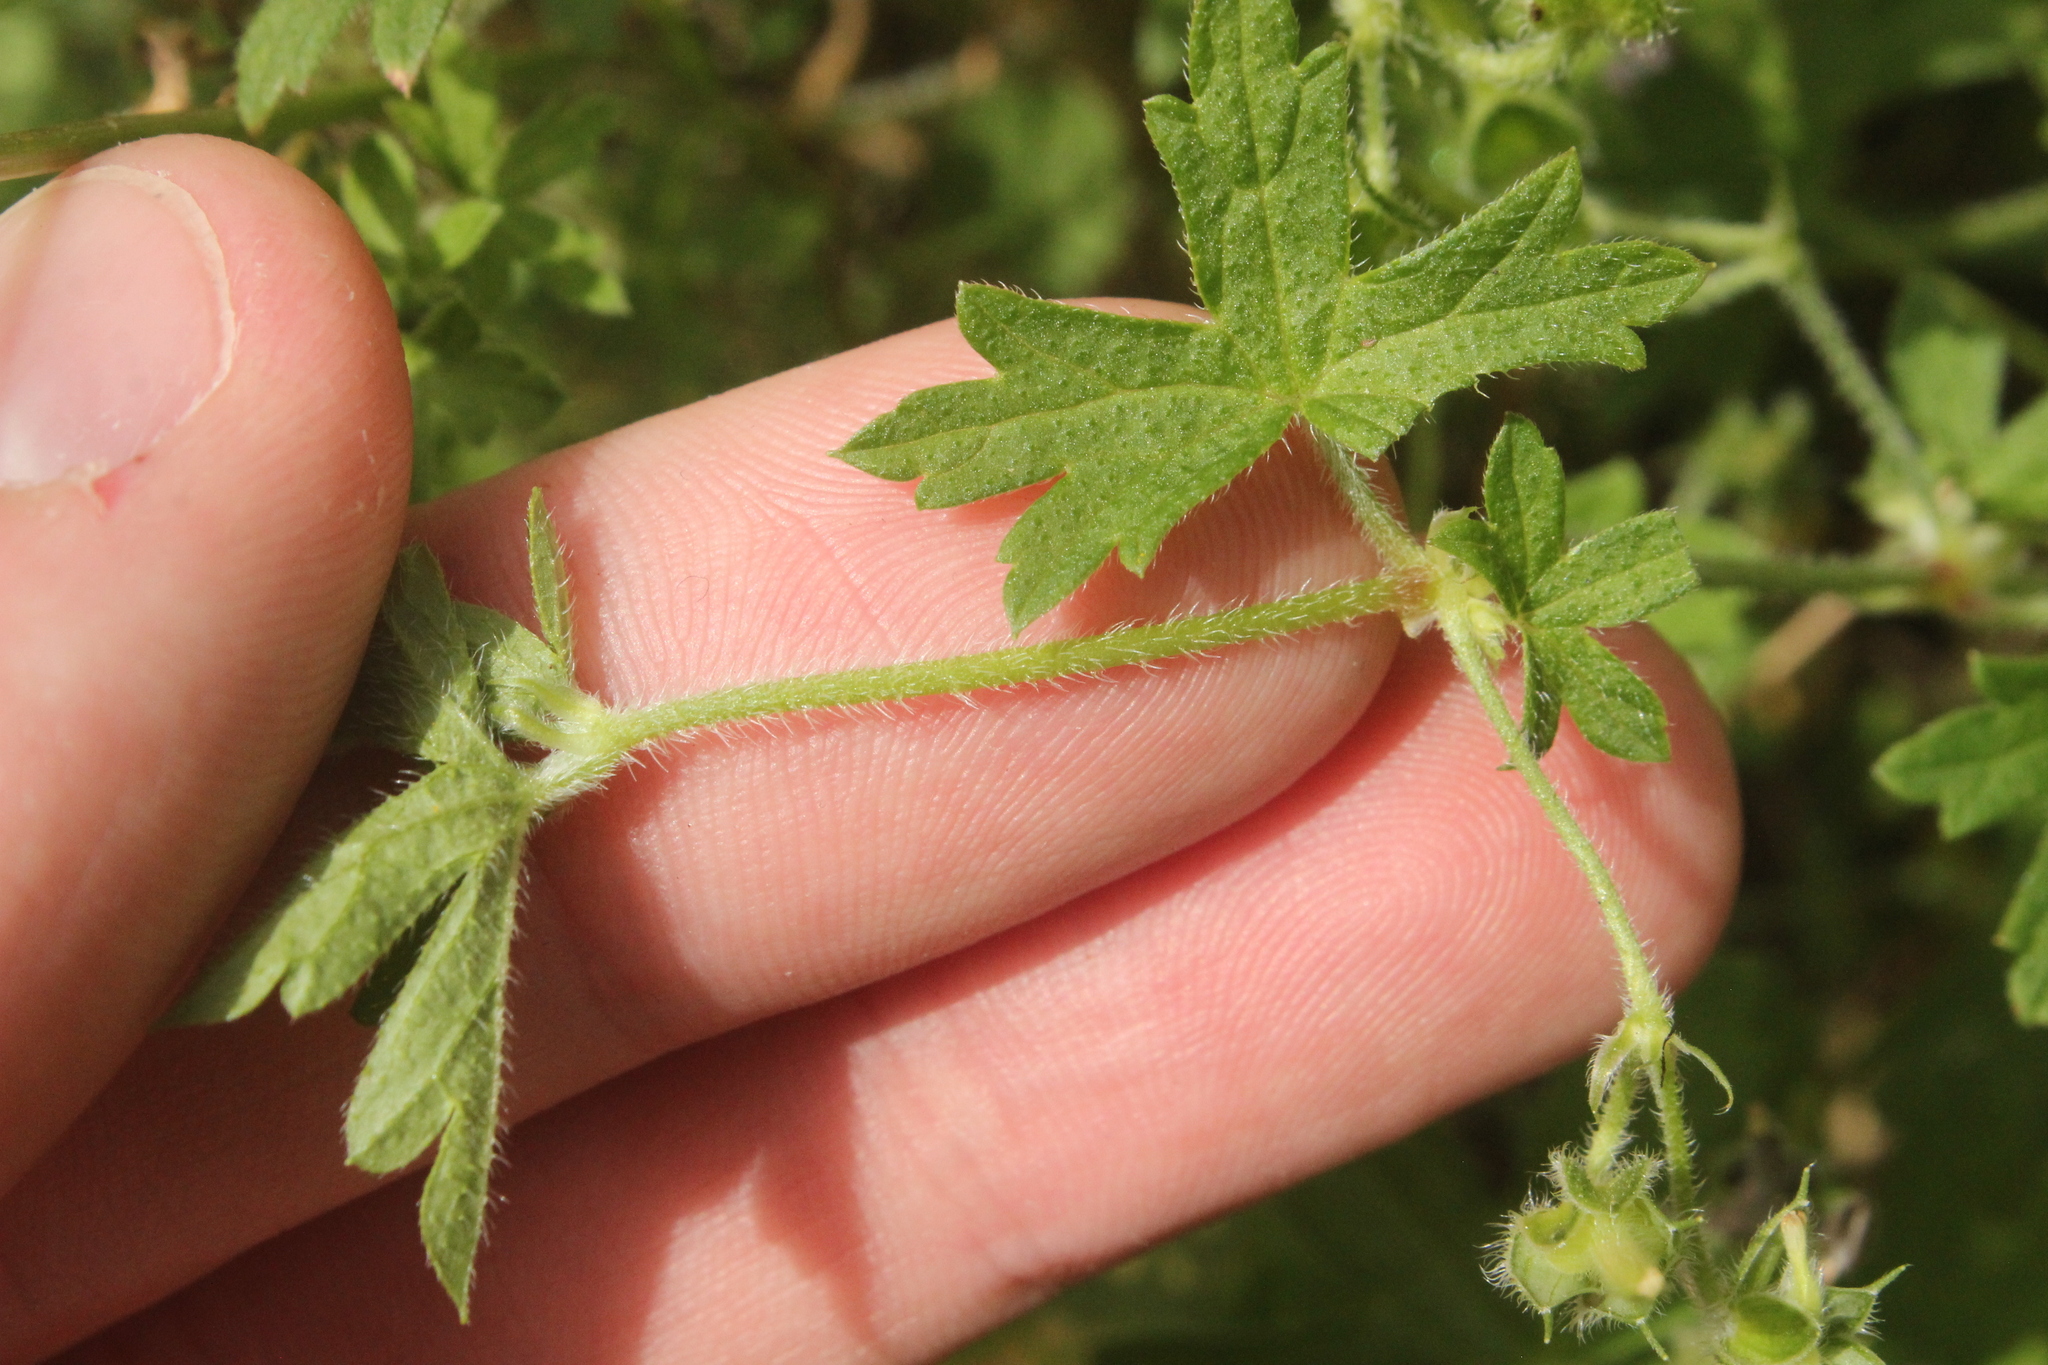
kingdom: Plantae
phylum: Tracheophyta
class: Magnoliopsida
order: Geraniales
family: Geraniaceae
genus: Geranium
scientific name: Geranium gardneri
